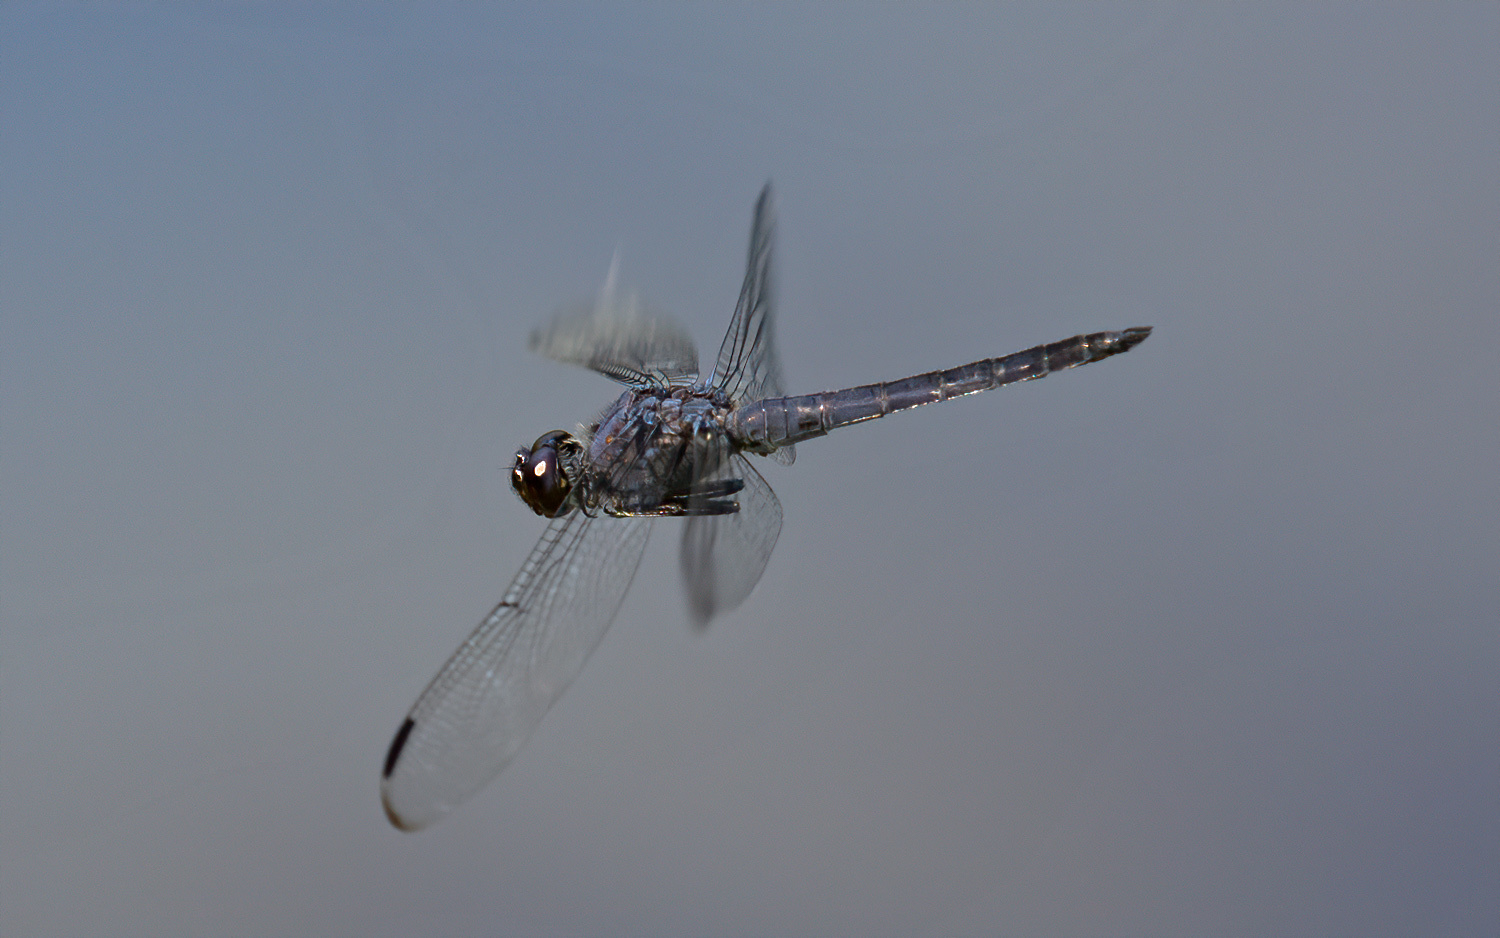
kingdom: Animalia
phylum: Arthropoda
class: Insecta
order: Odonata
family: Libellulidae
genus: Libellula
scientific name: Libellula incesta
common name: Slaty skimmer
